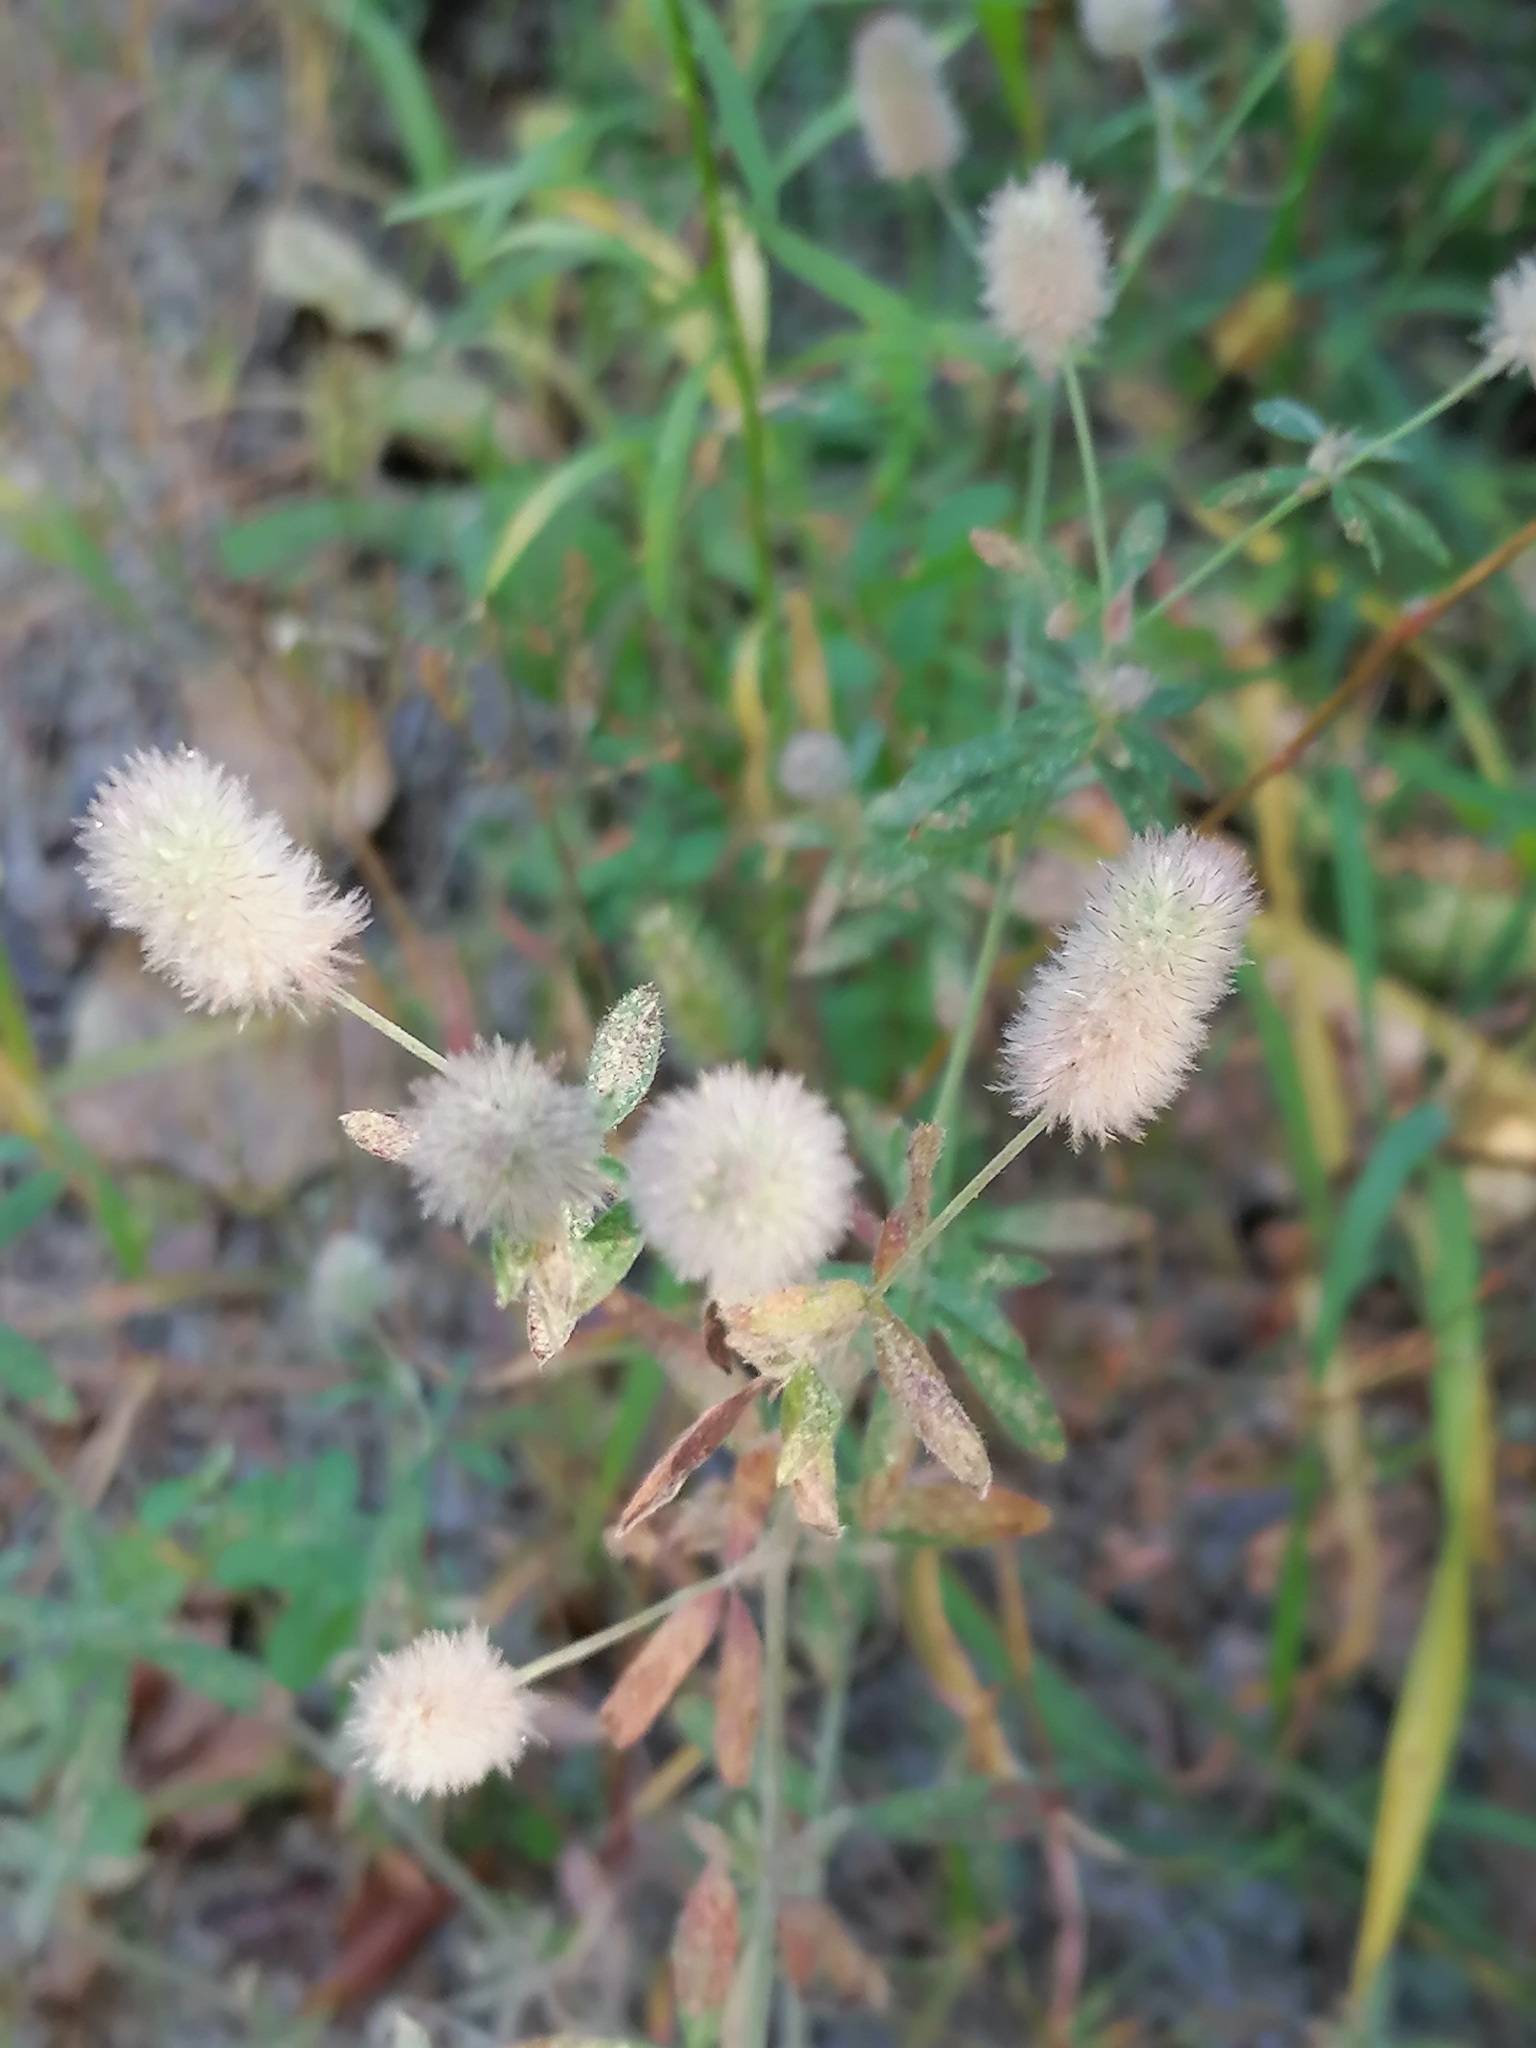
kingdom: Plantae
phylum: Tracheophyta
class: Magnoliopsida
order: Fabales
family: Fabaceae
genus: Trifolium
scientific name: Trifolium arvense
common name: Hare's-foot clover
